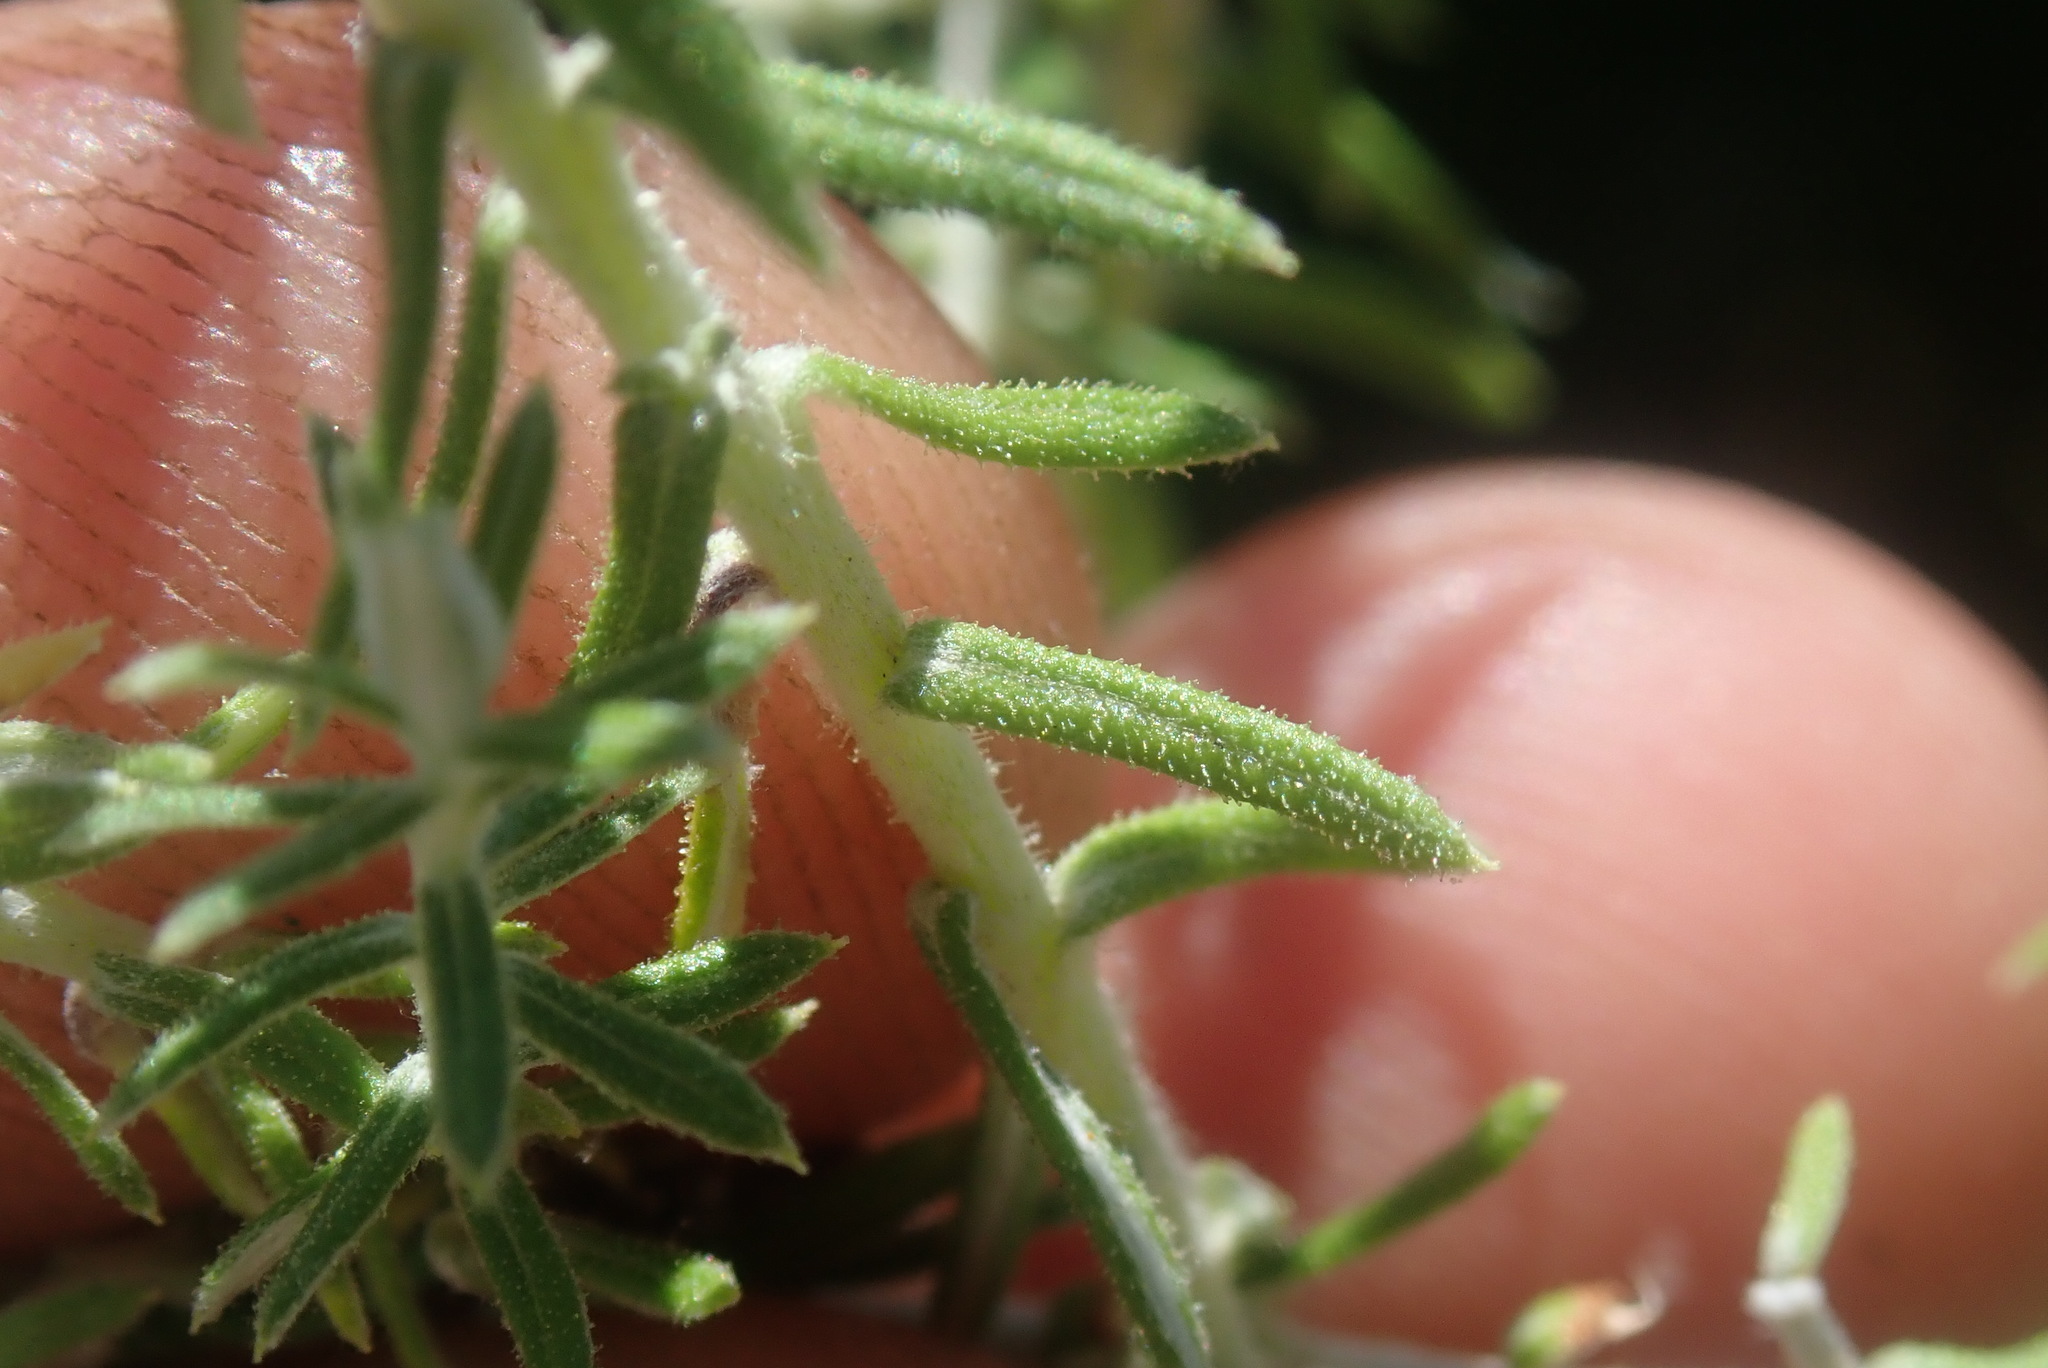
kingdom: Plantae
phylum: Tracheophyta
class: Magnoliopsida
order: Asterales
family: Asteraceae
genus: Helichrysum
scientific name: Helichrysum reflexum
